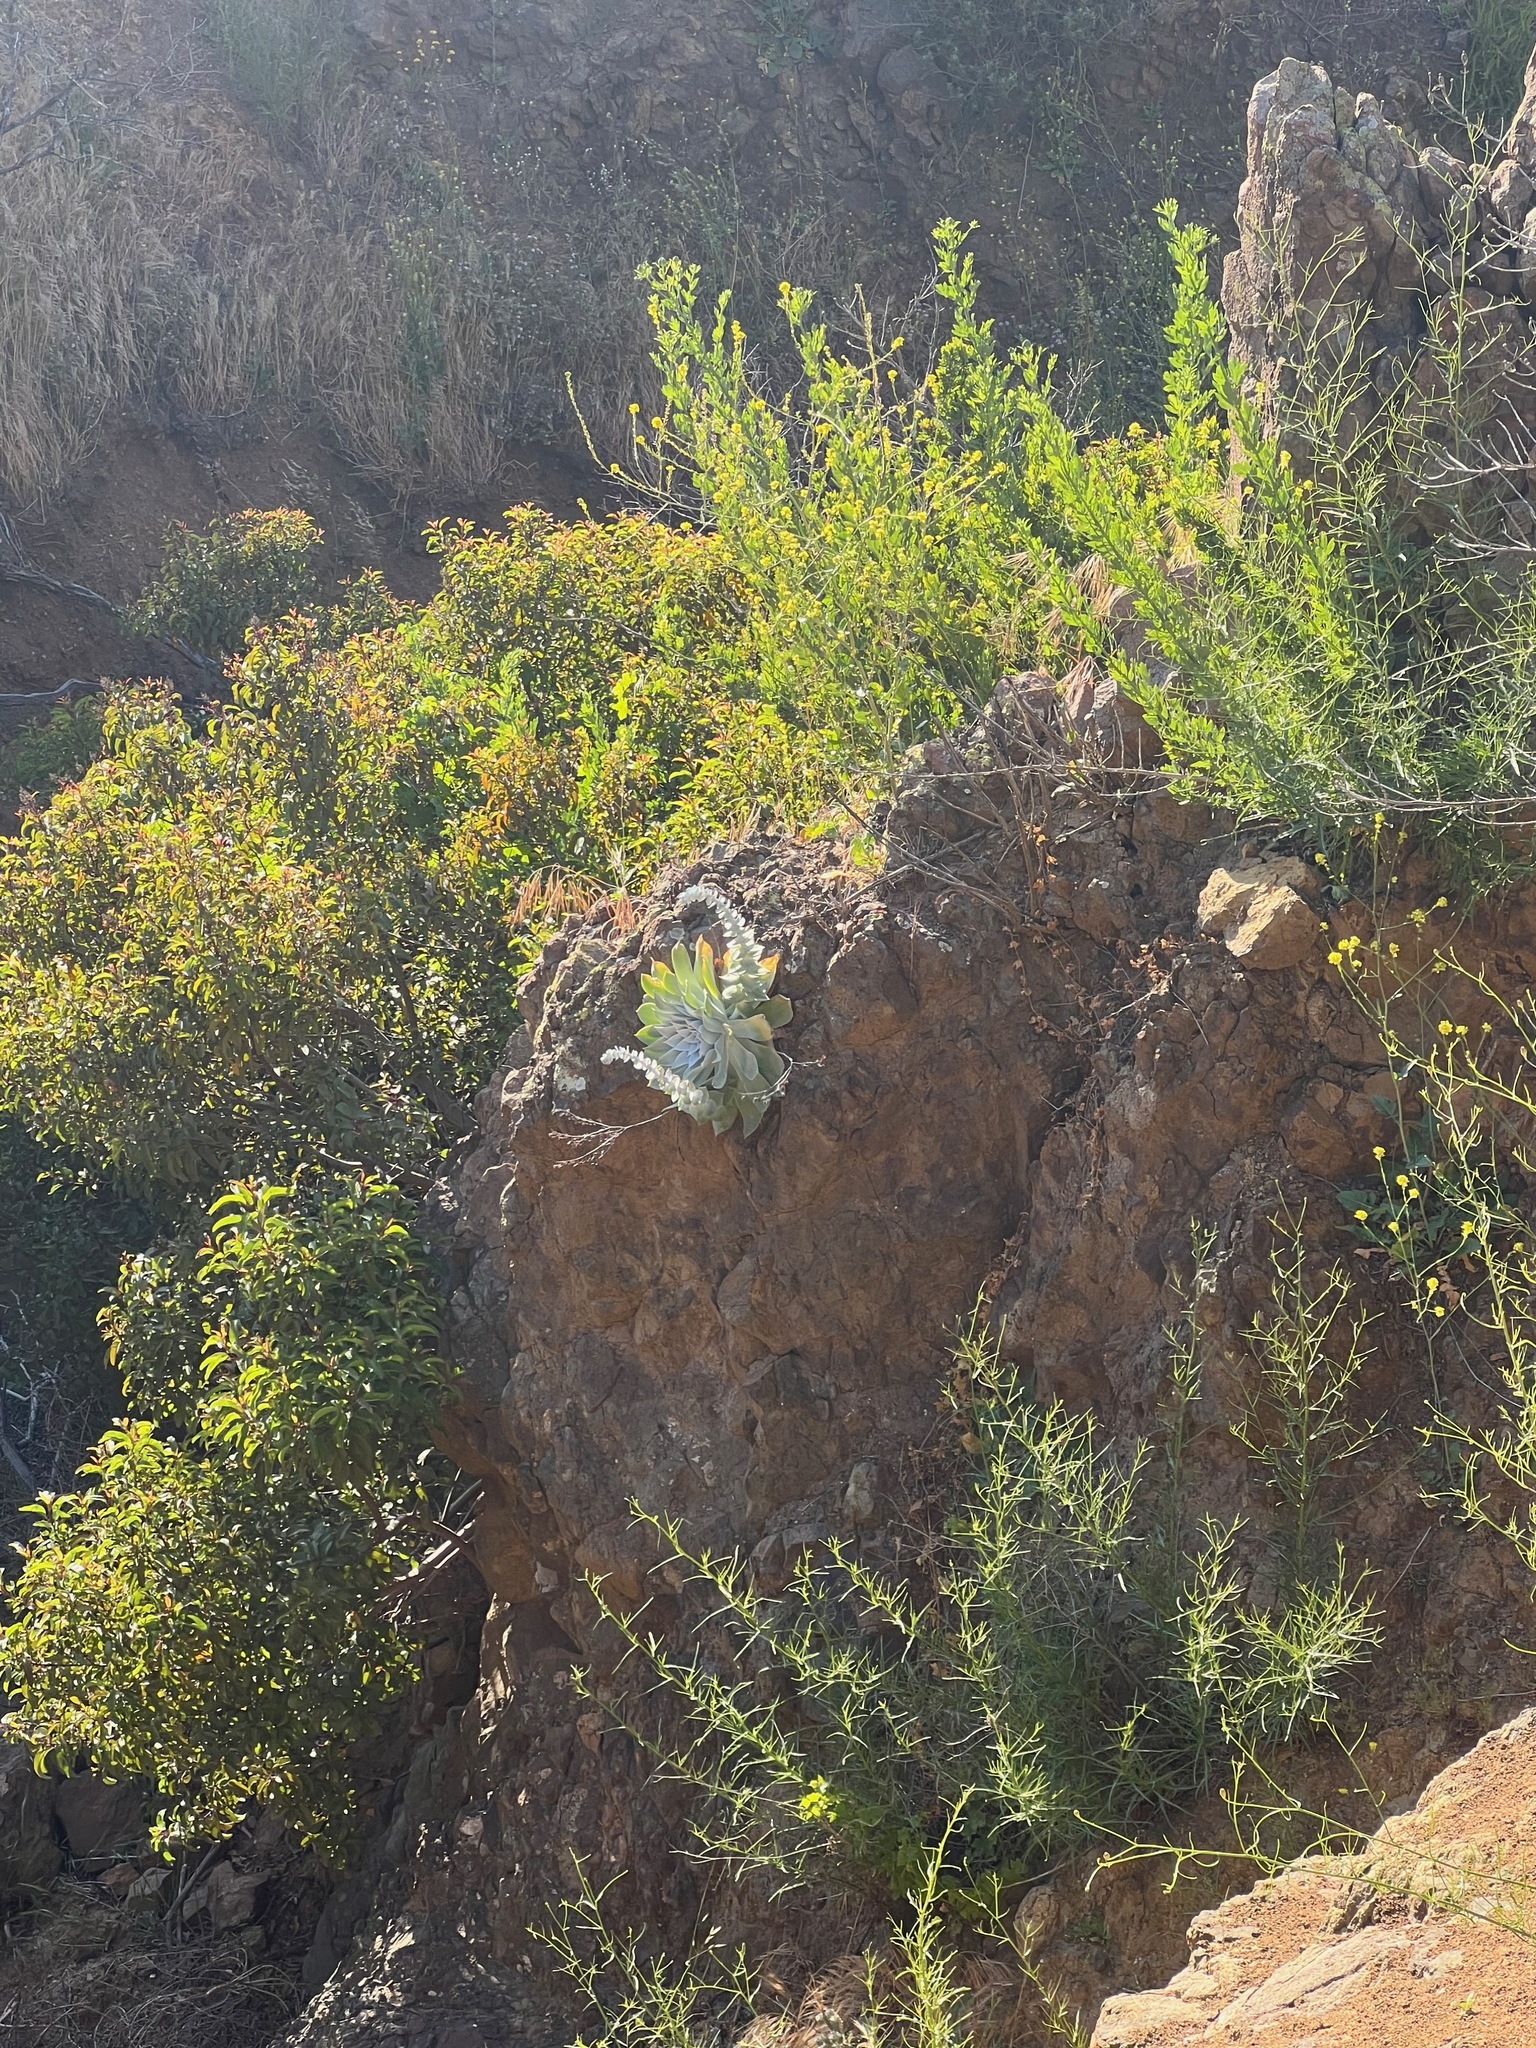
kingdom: Plantae
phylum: Tracheophyta
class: Magnoliopsida
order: Saxifragales
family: Crassulaceae
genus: Dudleya
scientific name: Dudleya pulverulenta
